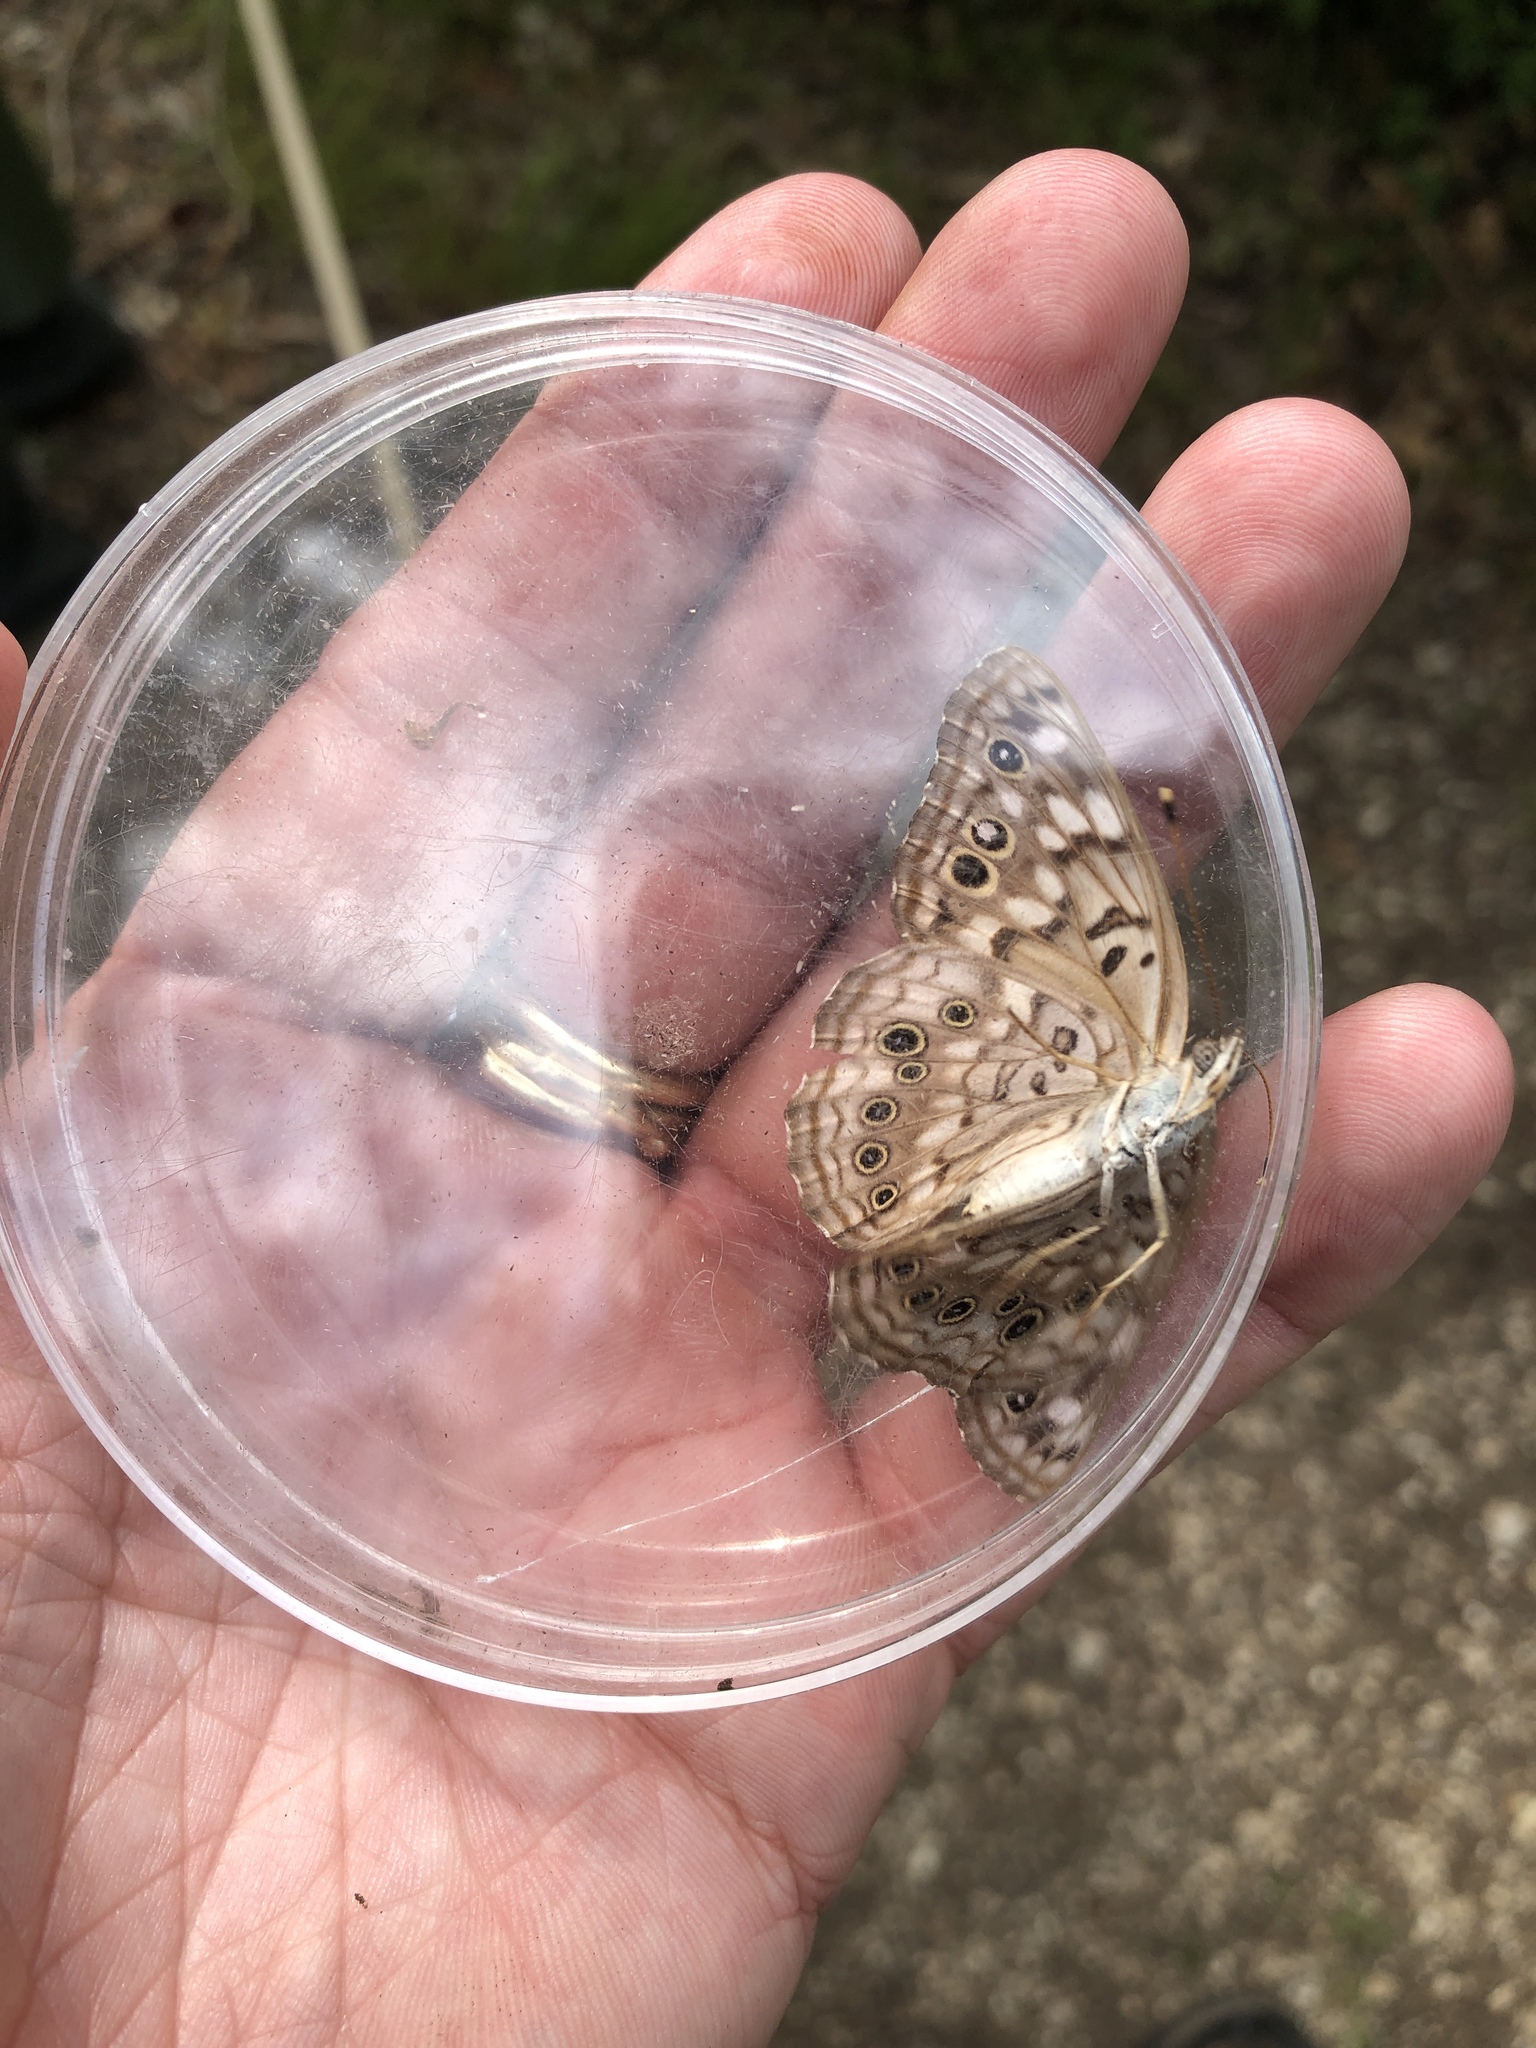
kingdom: Animalia
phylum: Arthropoda
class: Insecta
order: Lepidoptera
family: Nymphalidae
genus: Asterocampa
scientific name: Asterocampa celtis
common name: Hackberry emperor
